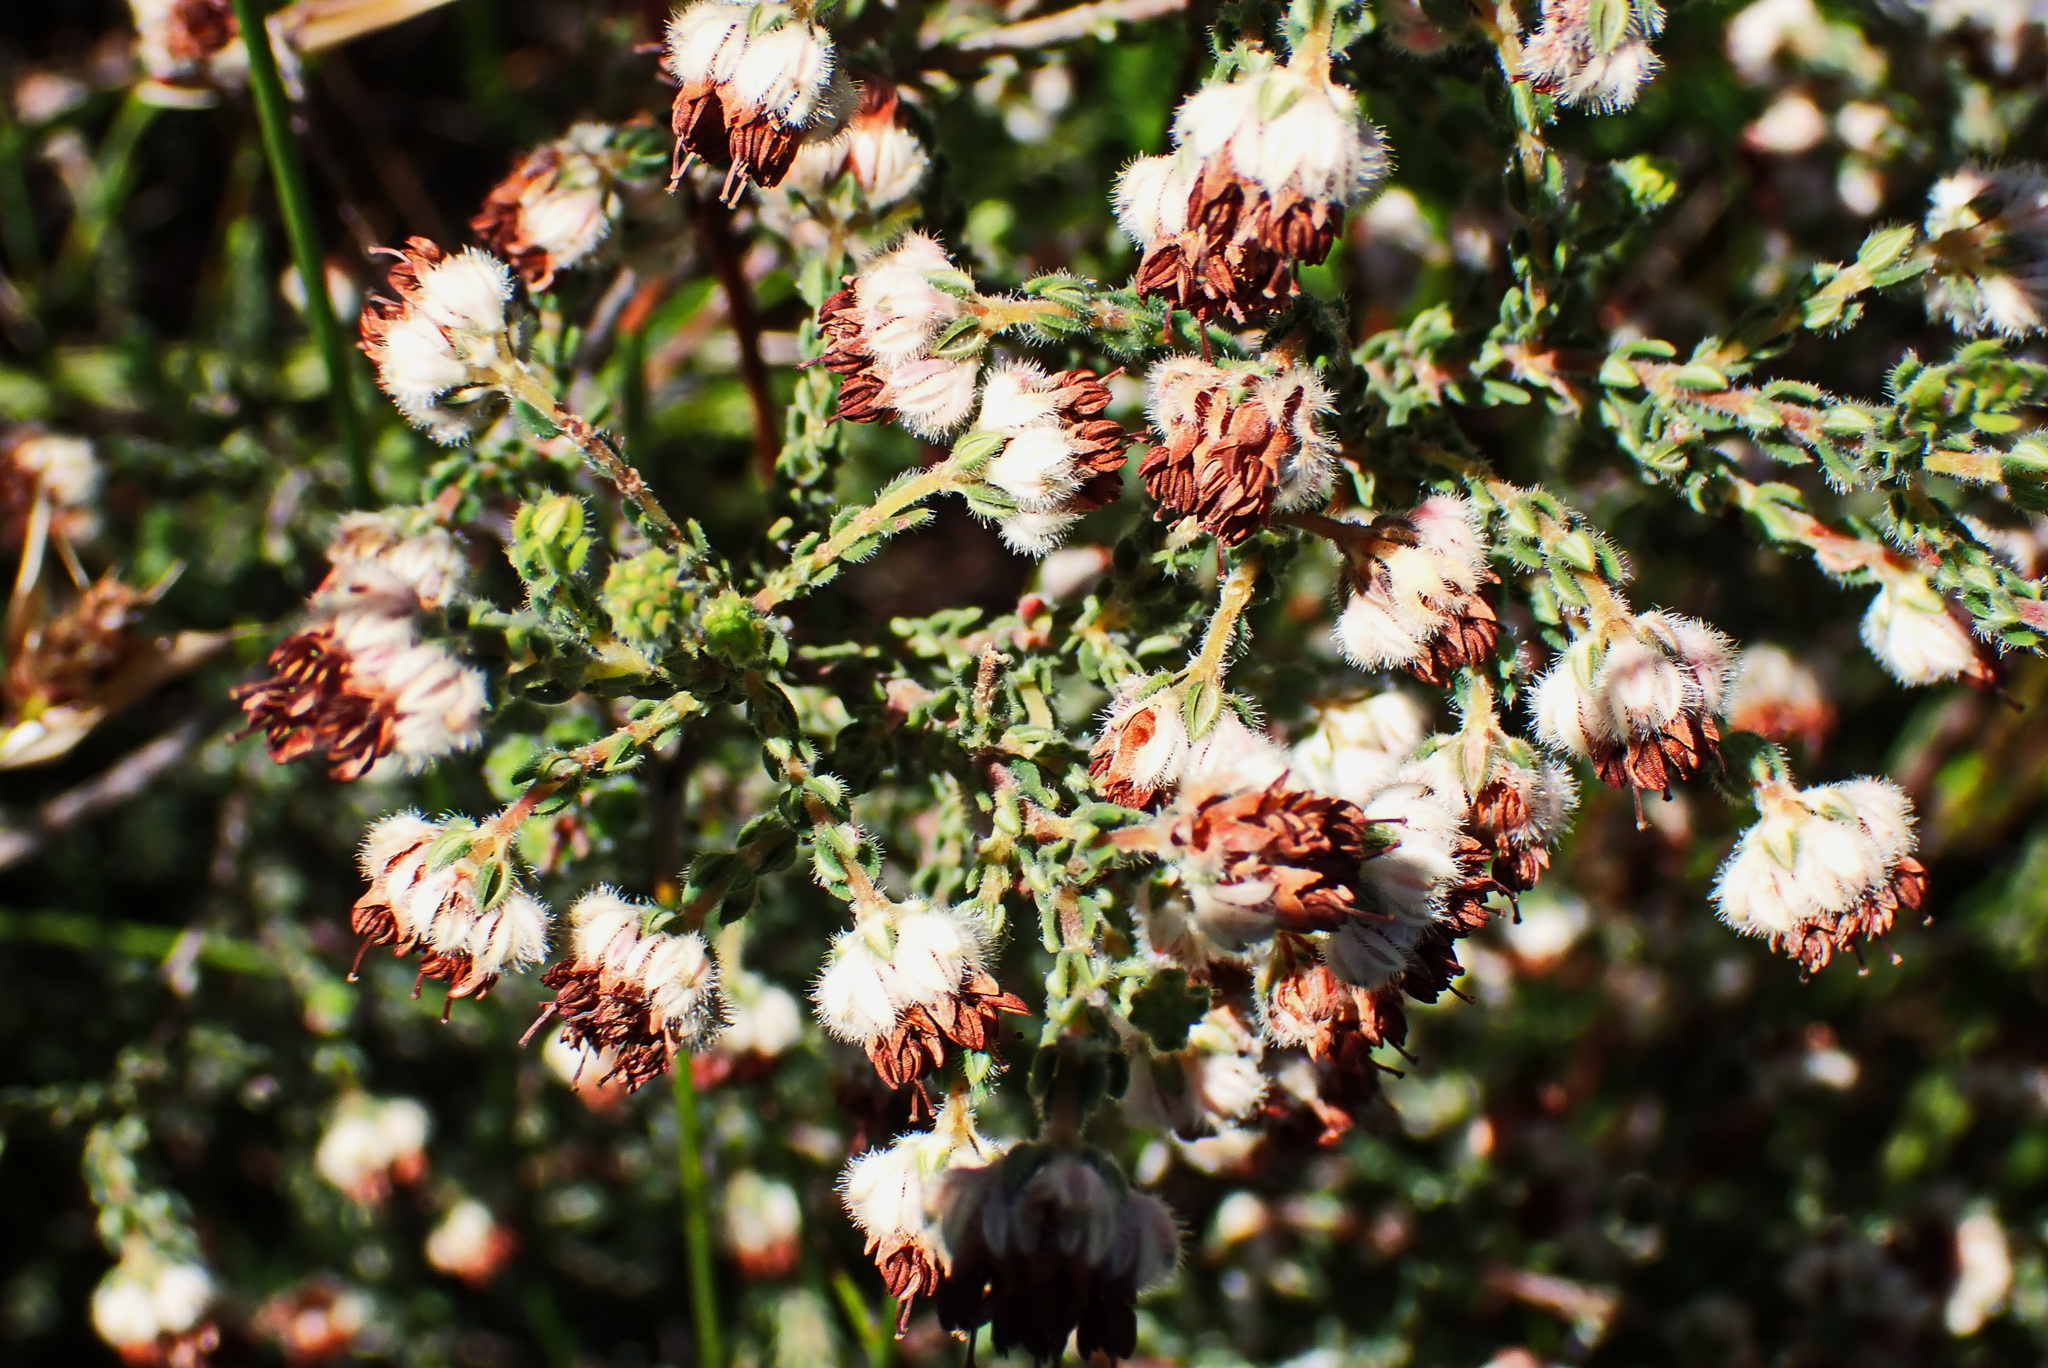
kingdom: Plantae
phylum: Tracheophyta
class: Magnoliopsida
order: Ericales
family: Ericaceae
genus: Erica
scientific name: Erica flaccida
